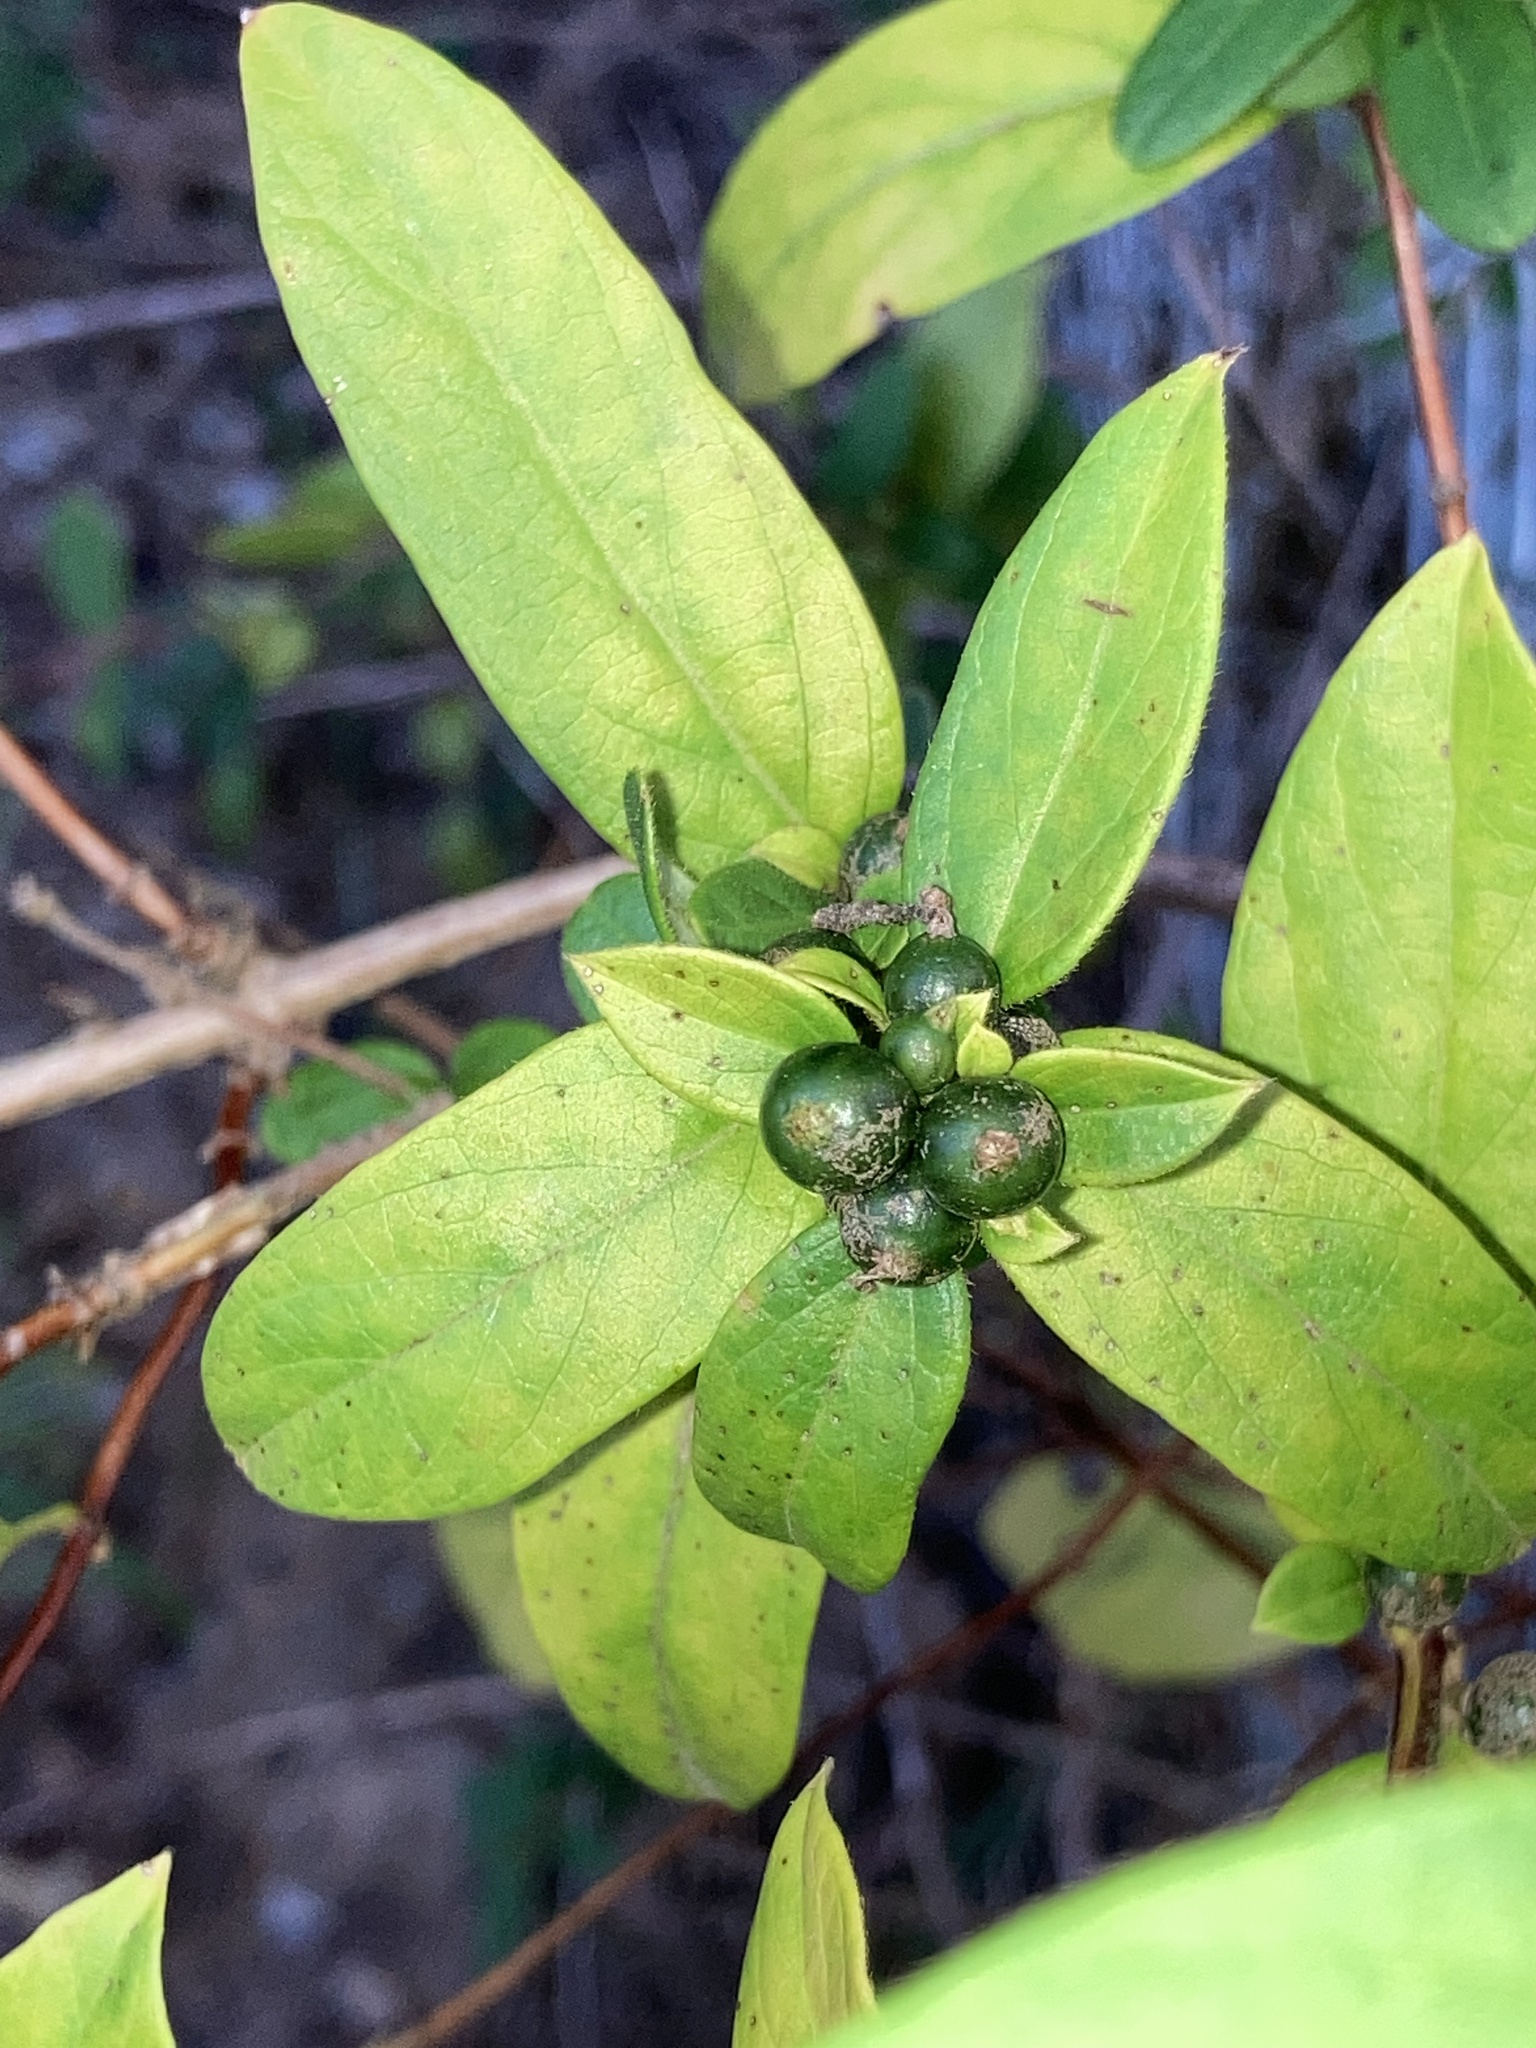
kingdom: Plantae
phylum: Tracheophyta
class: Magnoliopsida
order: Dipsacales
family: Caprifoliaceae
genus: Lonicera
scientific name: Lonicera japonica
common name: Japanese honeysuckle
